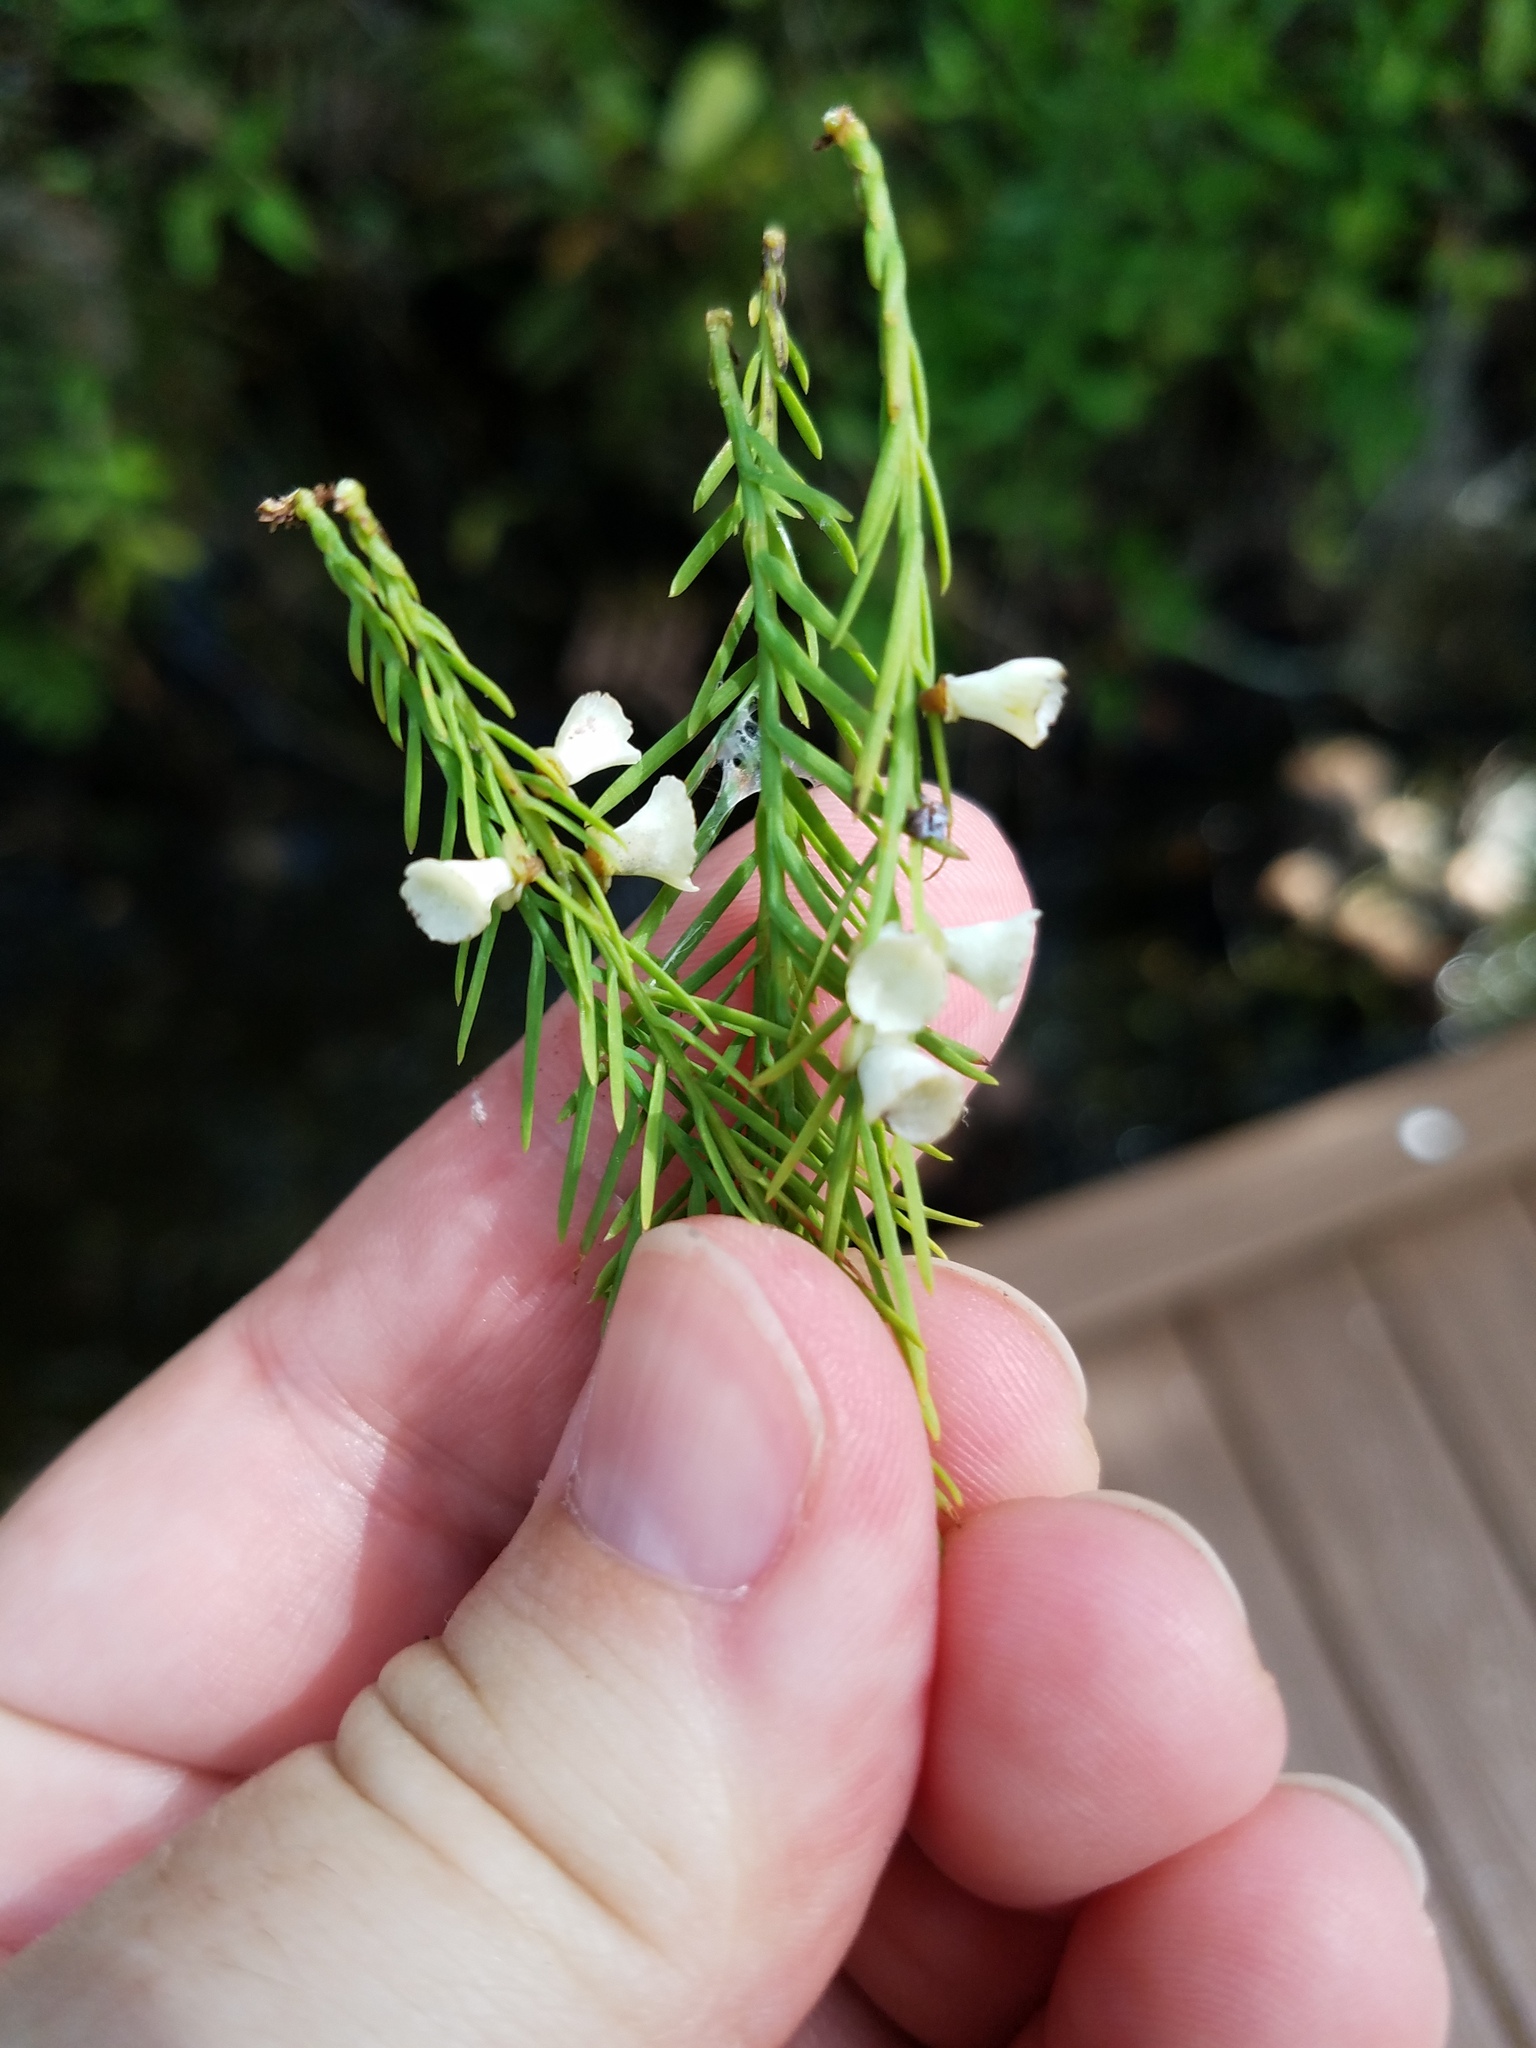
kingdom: Animalia
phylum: Arthropoda
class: Insecta
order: Diptera
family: Cecidomyiidae
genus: Taxodiomyia
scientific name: Taxodiomyia cupressi
